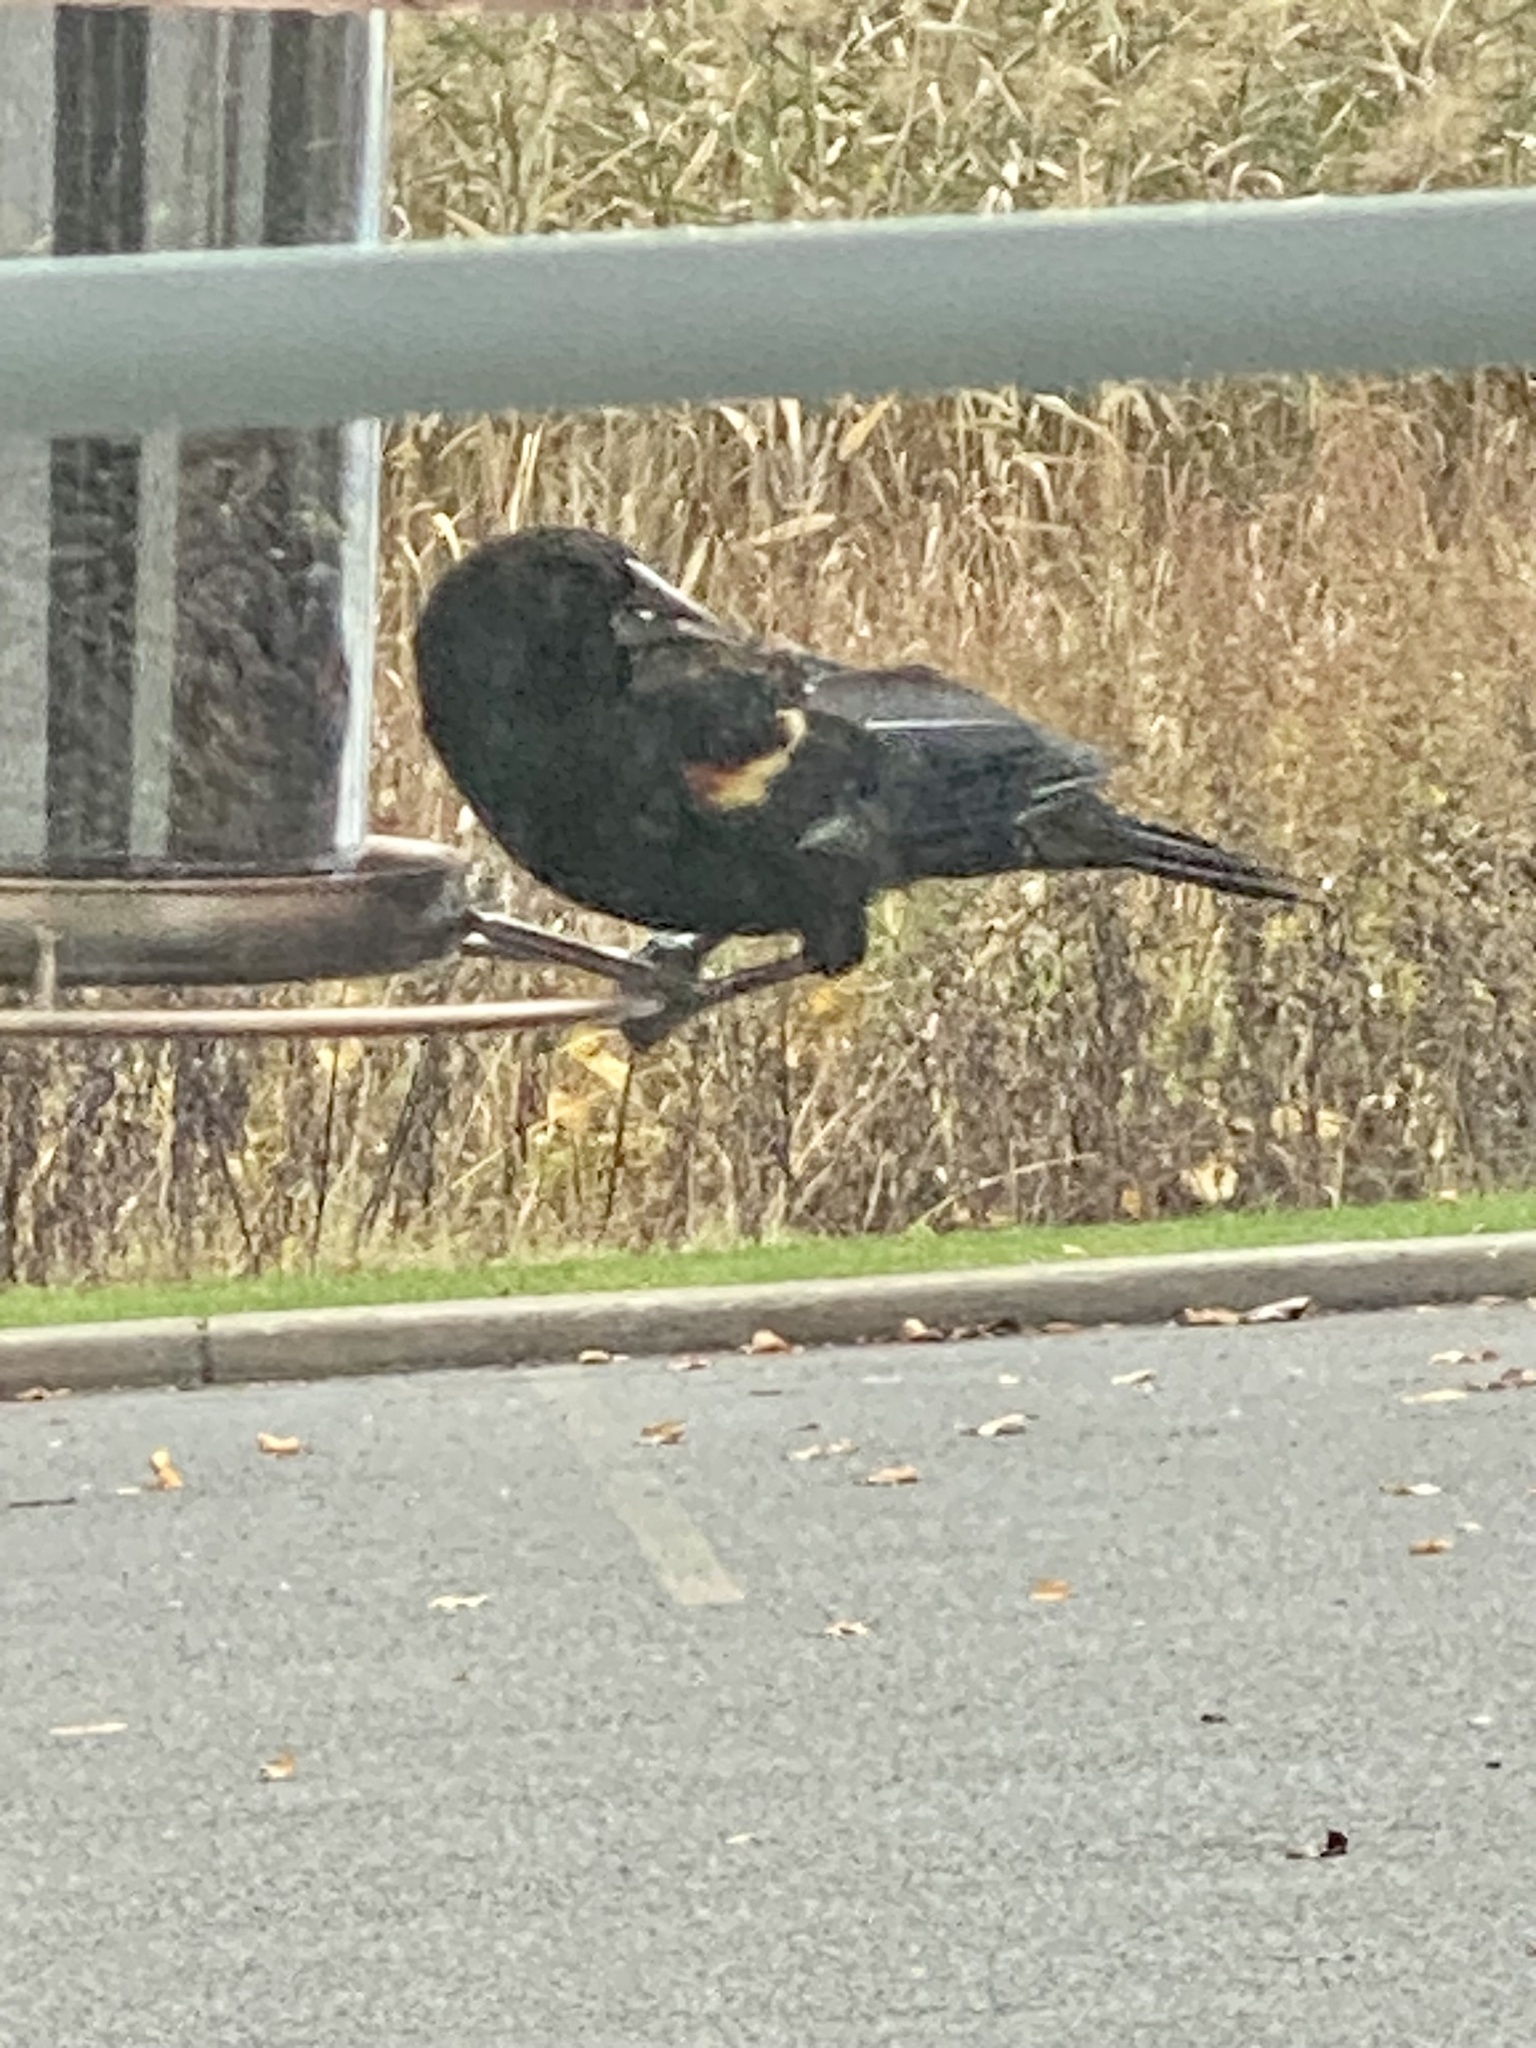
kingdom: Animalia
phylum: Chordata
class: Aves
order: Passeriformes
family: Icteridae
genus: Agelaius
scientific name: Agelaius phoeniceus
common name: Red-winged blackbird
